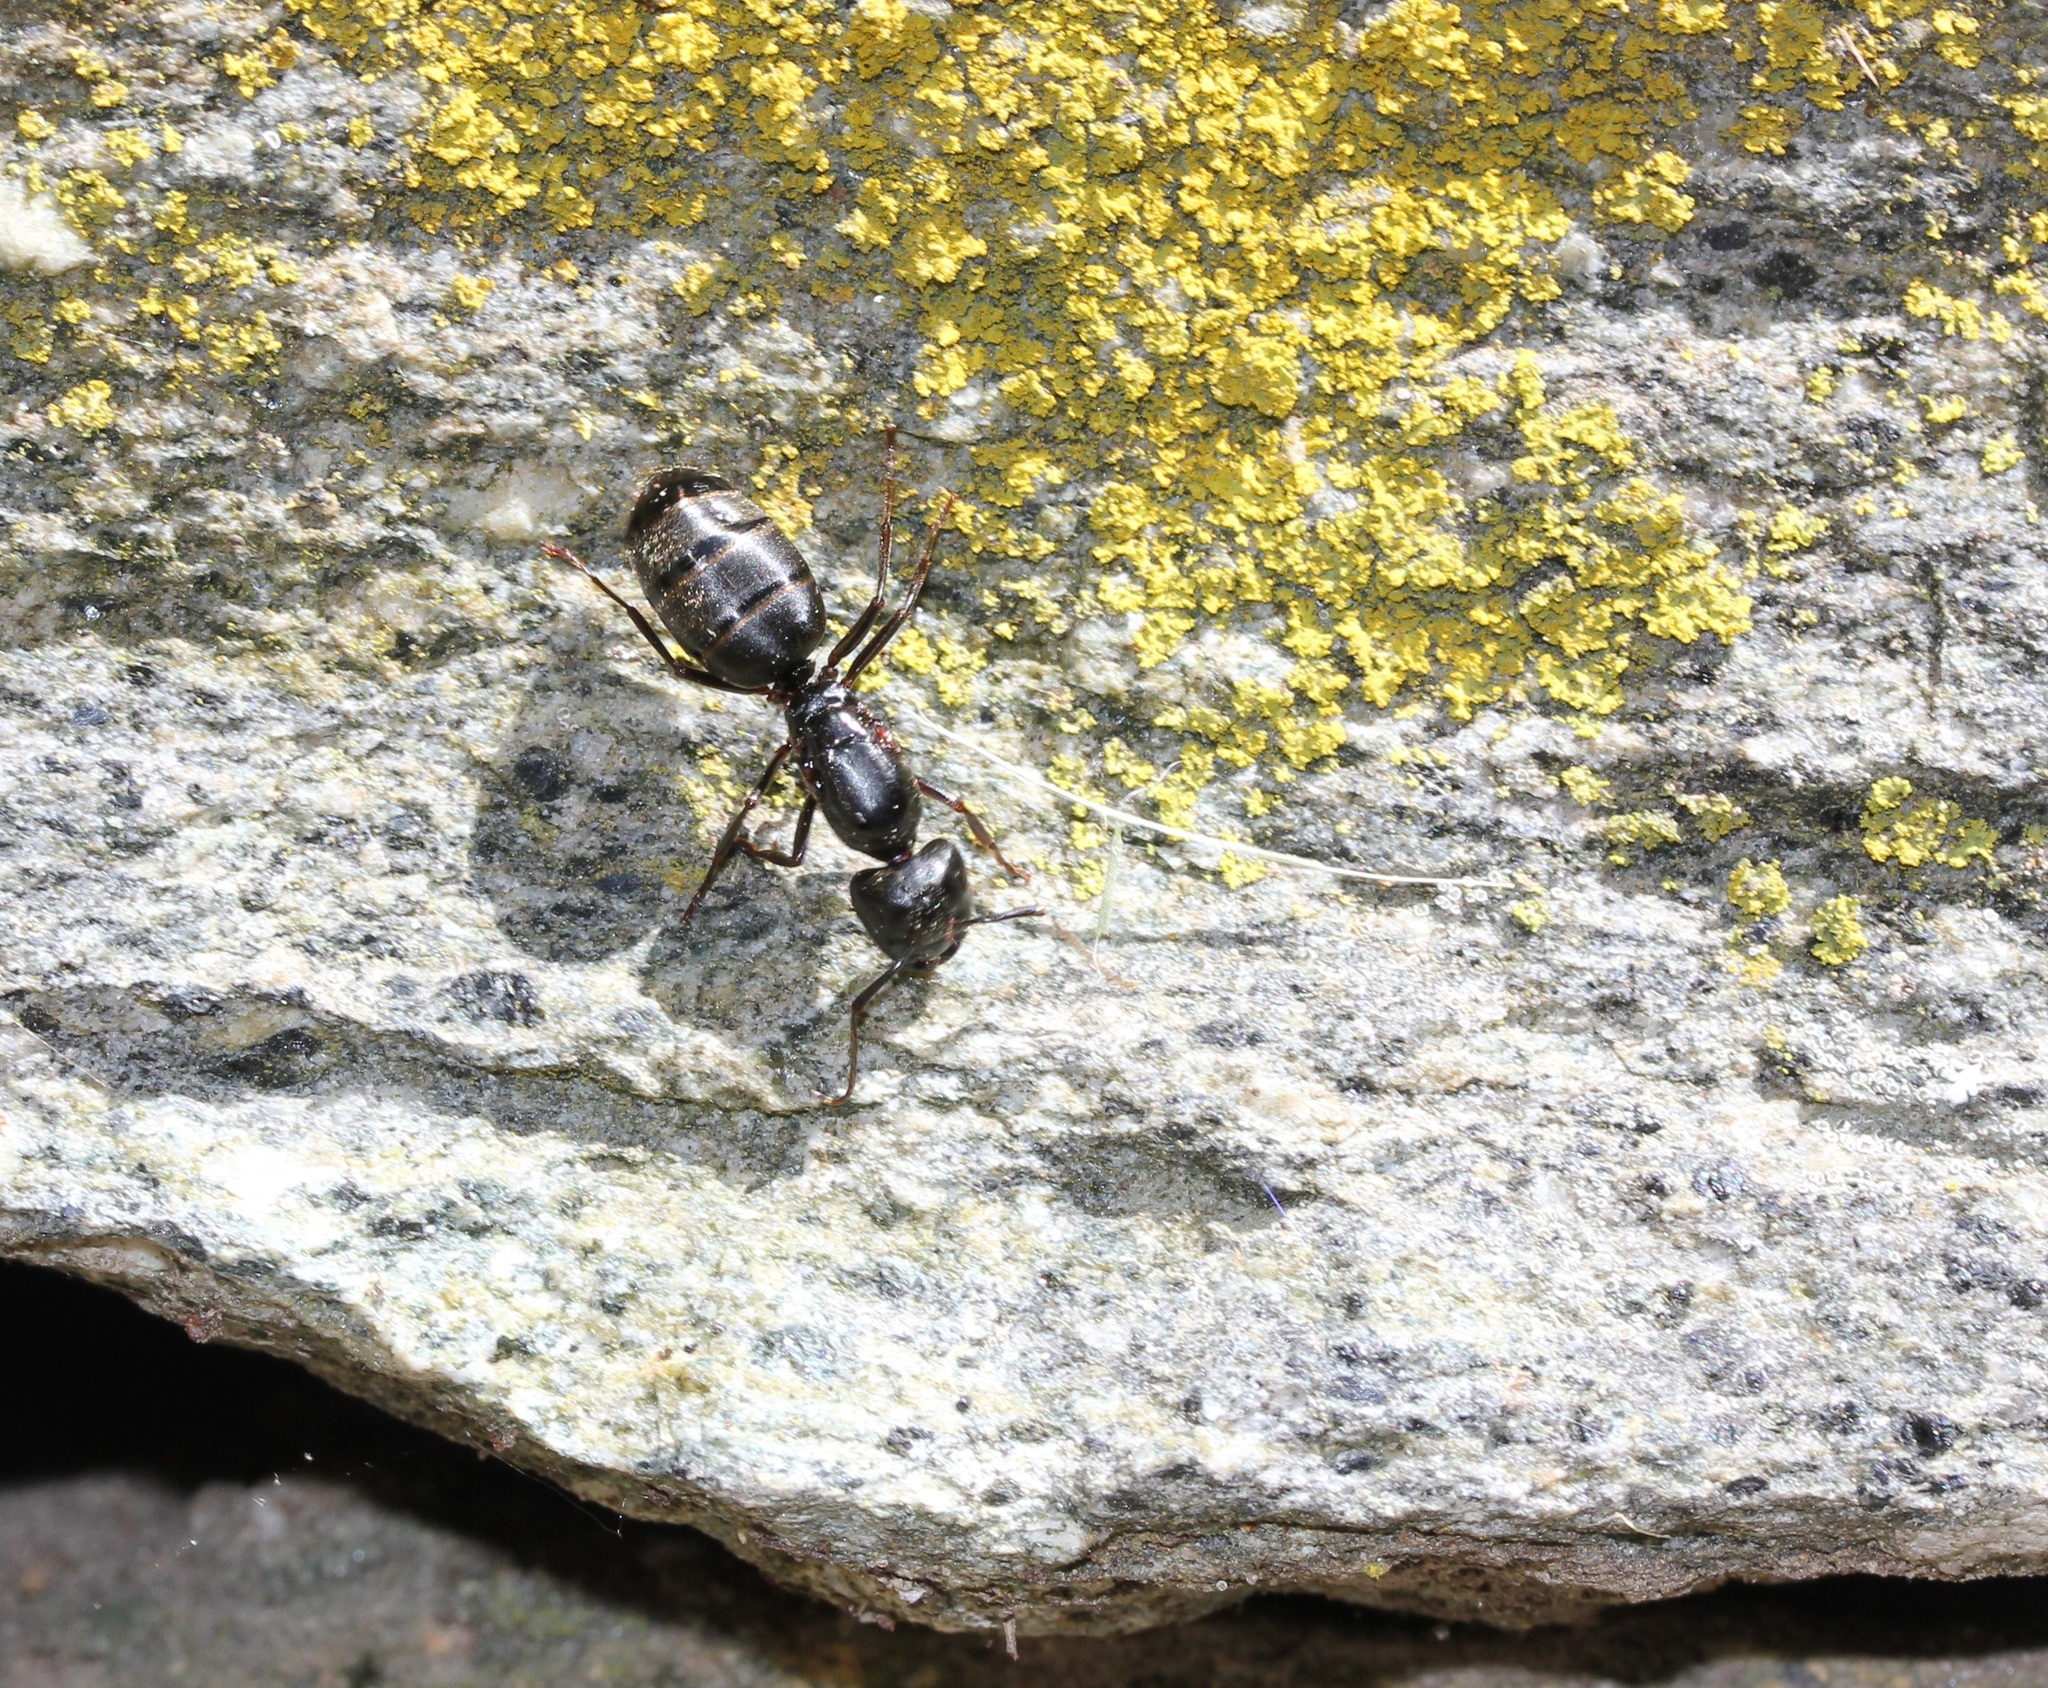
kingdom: Animalia
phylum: Arthropoda
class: Insecta
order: Hymenoptera
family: Formicidae
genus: Camponotus
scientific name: Camponotus pennsylvanicus
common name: Black carpenter ant
